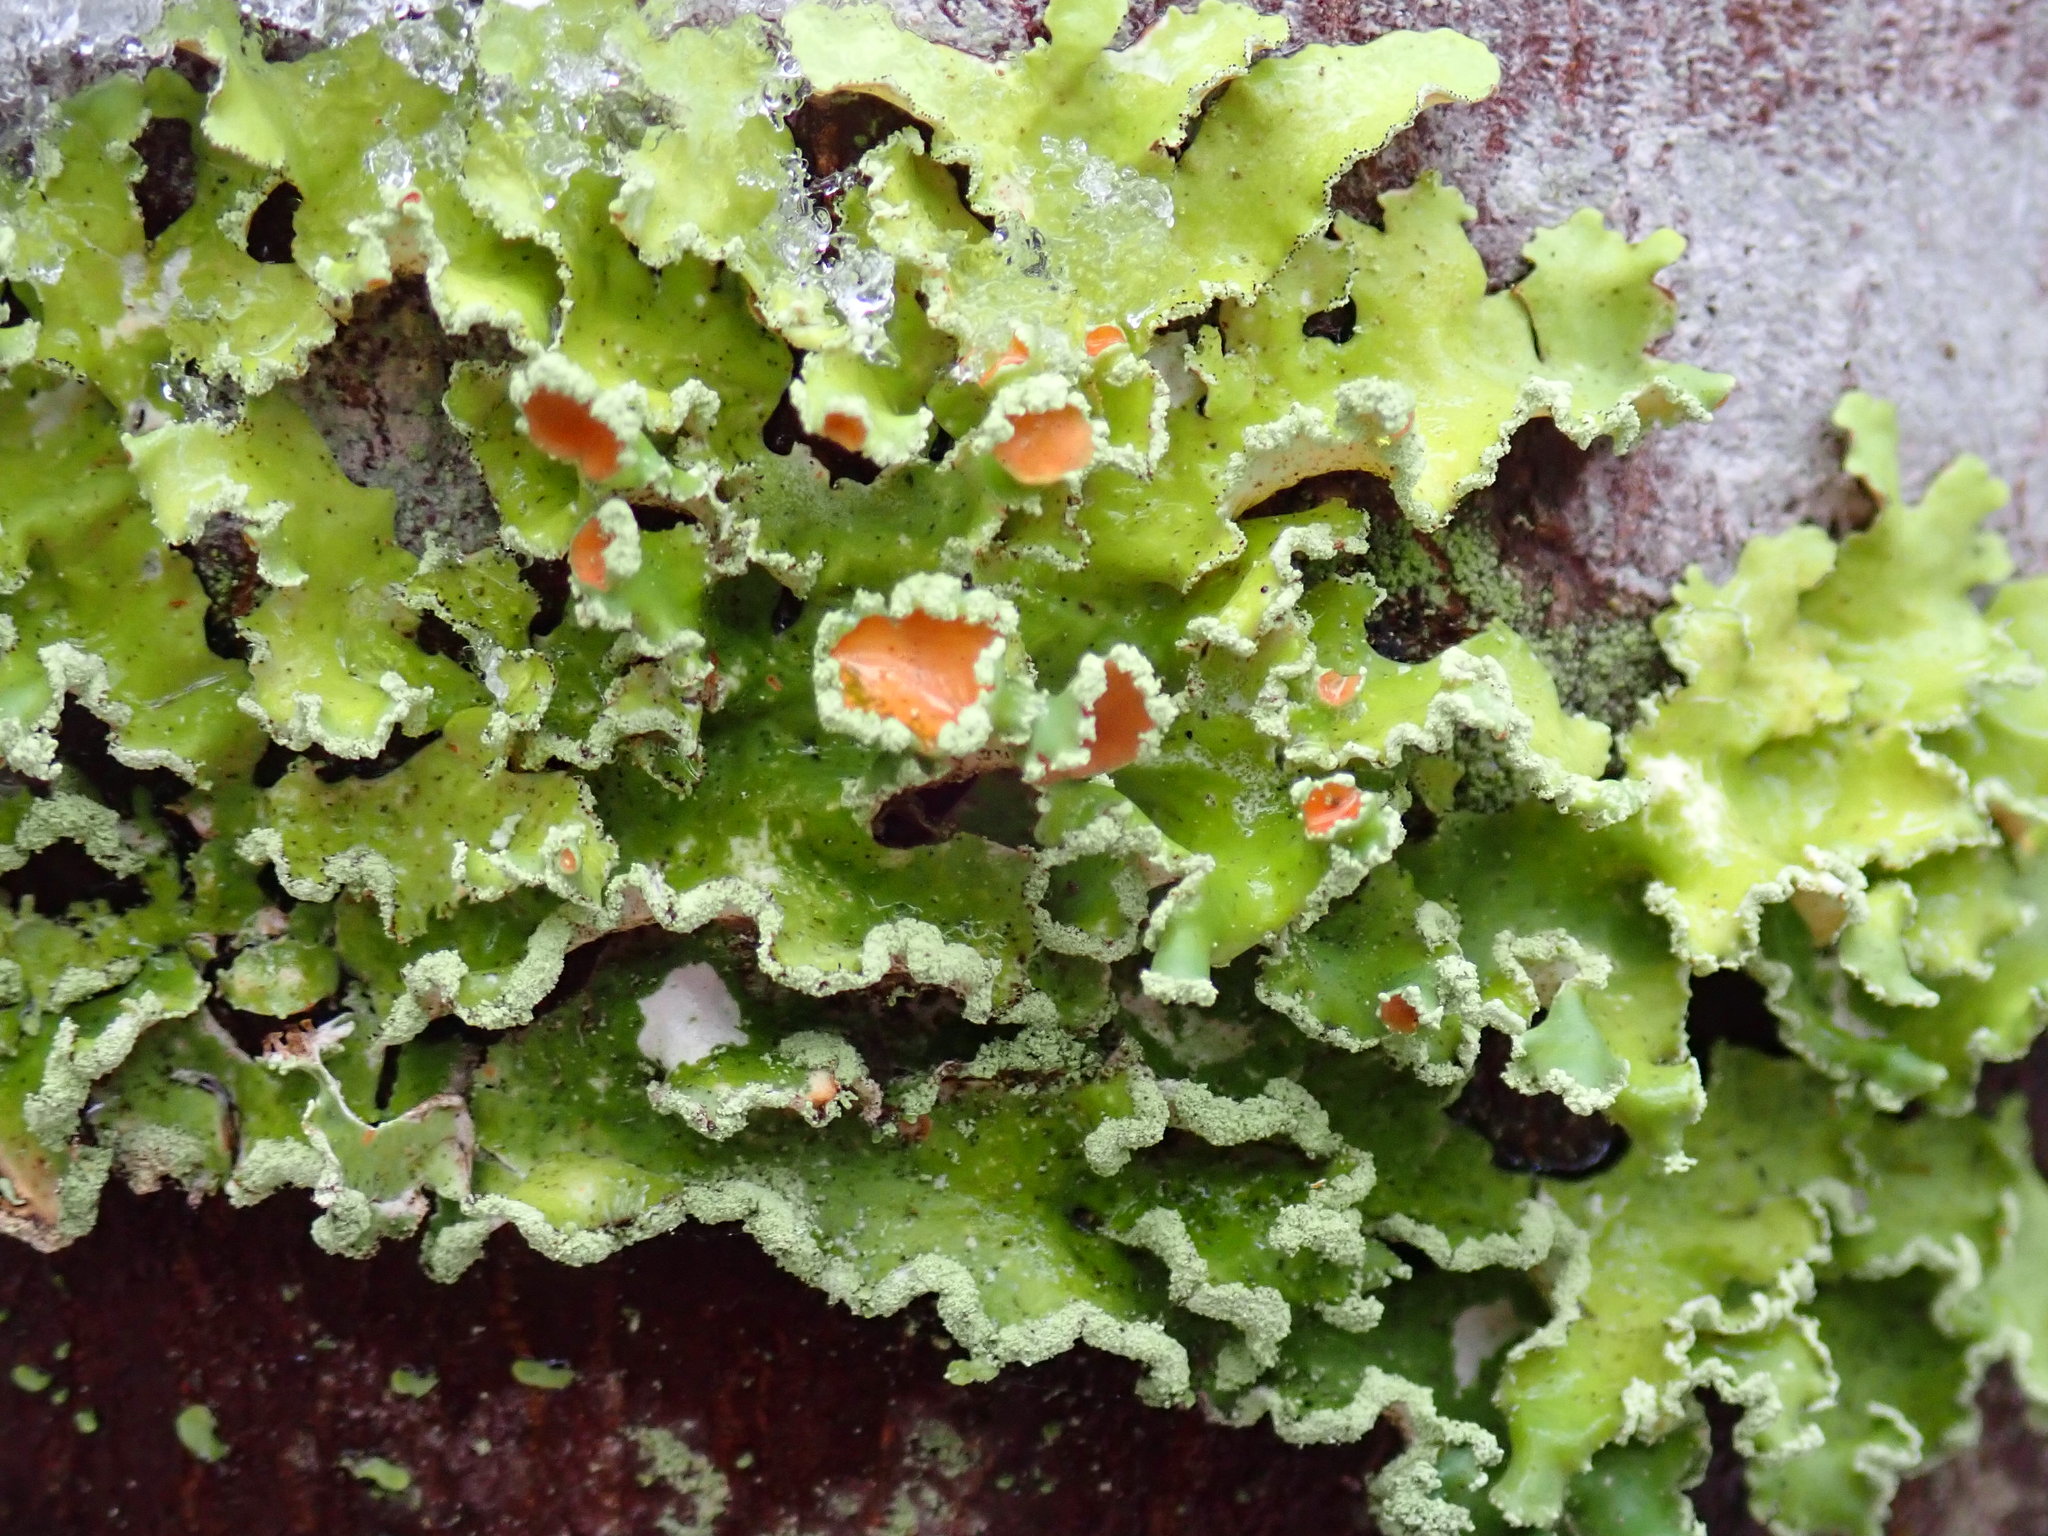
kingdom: Fungi
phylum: Ascomycota
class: Lecanoromycetes
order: Lecanorales
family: Parmeliaceae
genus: Usnocetraria
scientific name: Usnocetraria oakesiana
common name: Yellow ribbon lichen
